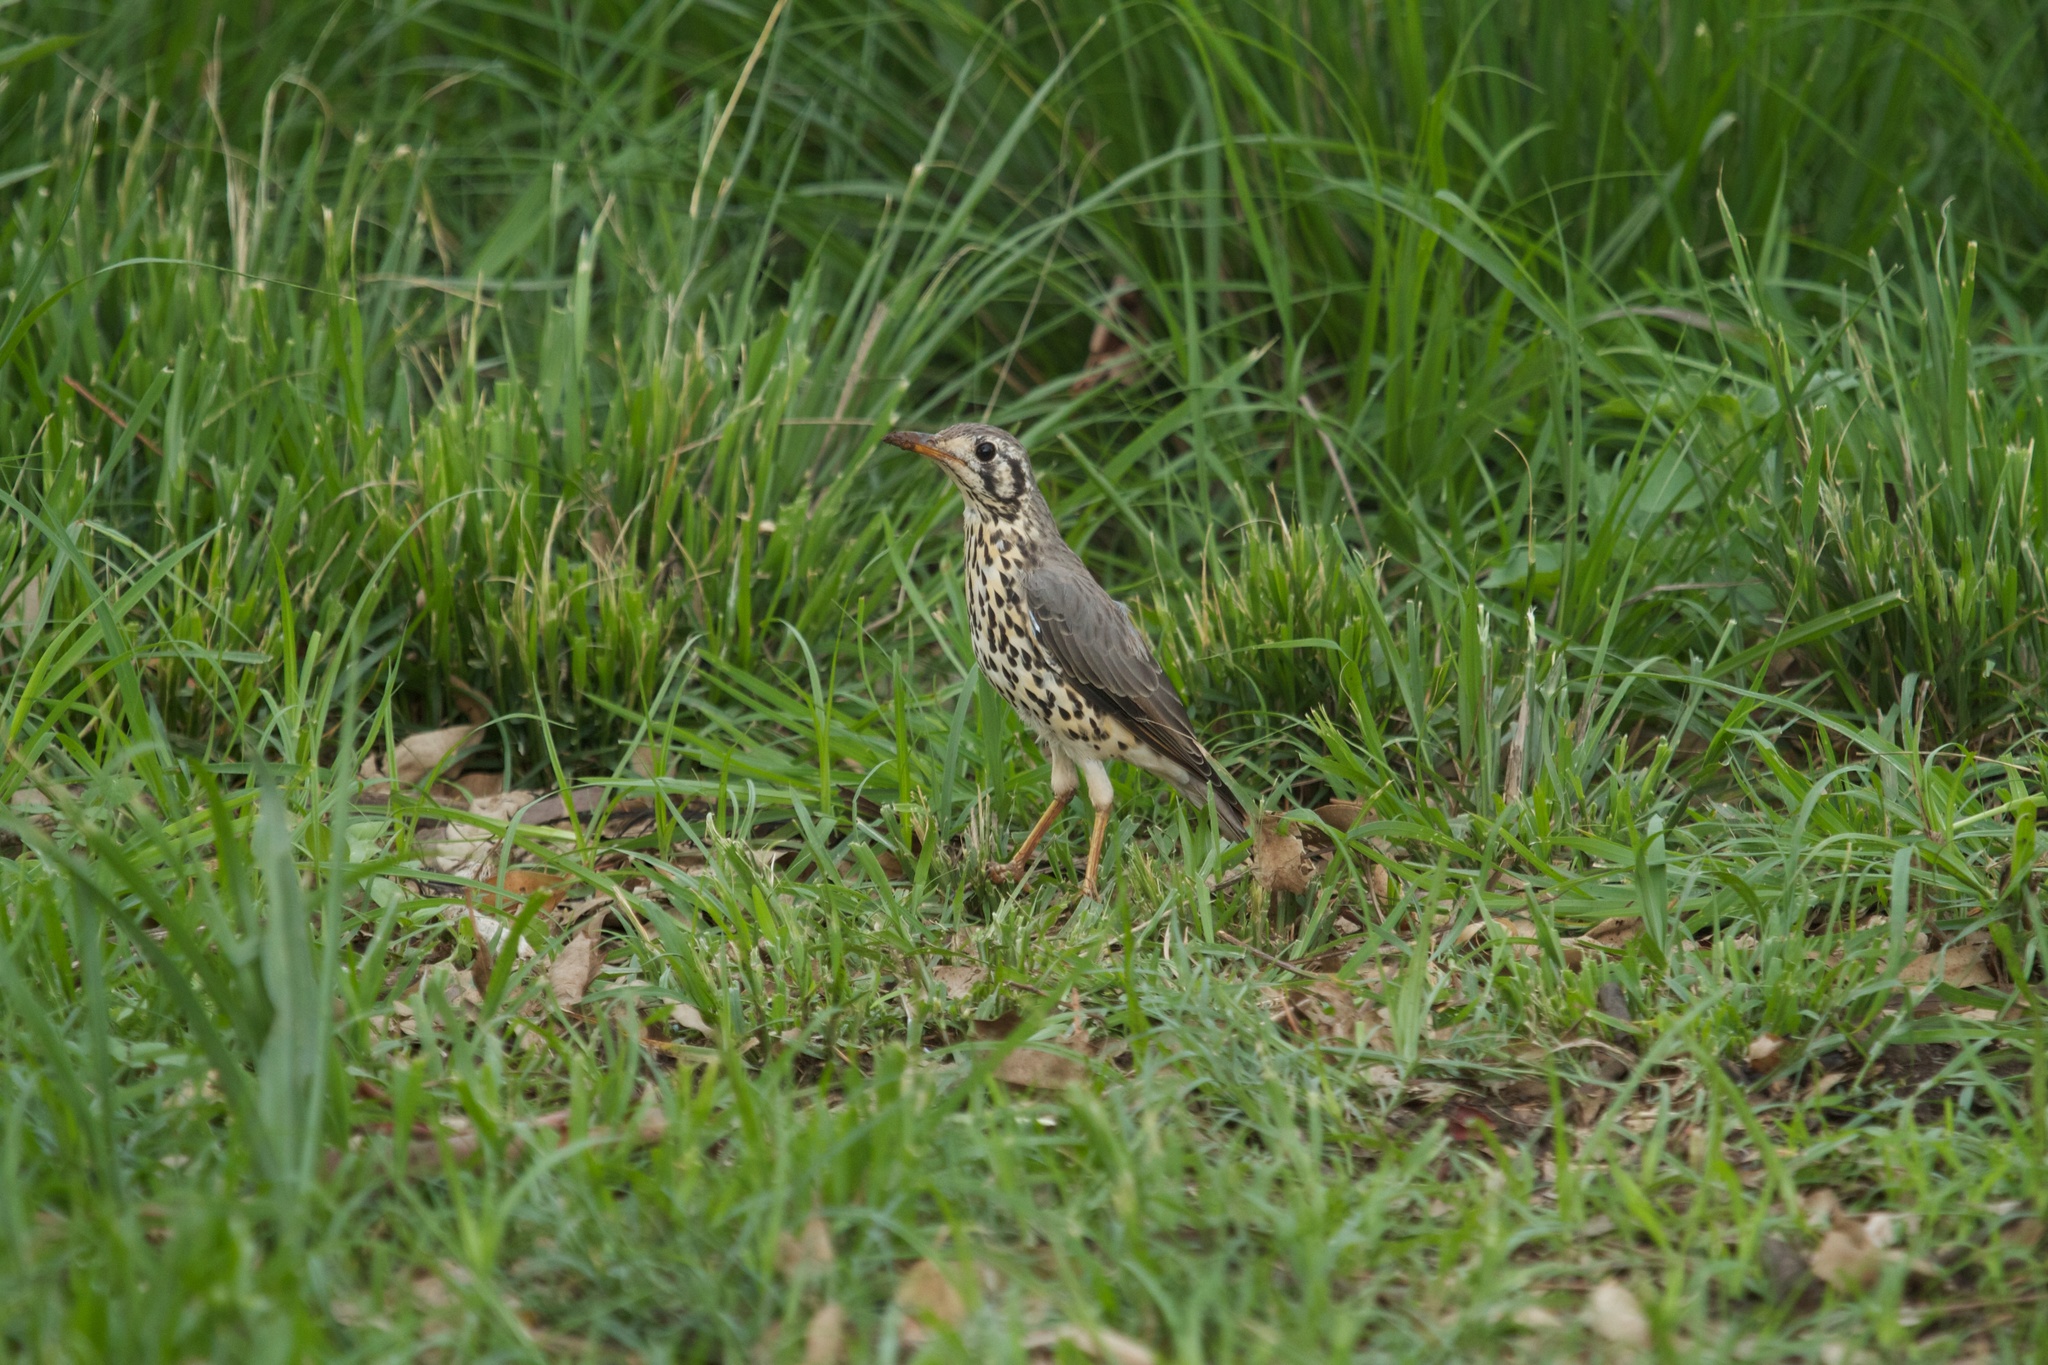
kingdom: Animalia
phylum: Chordata
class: Aves
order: Passeriformes
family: Turdidae
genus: Psophocichla
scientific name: Psophocichla litsitsirupa
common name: Groundscraper thrush
